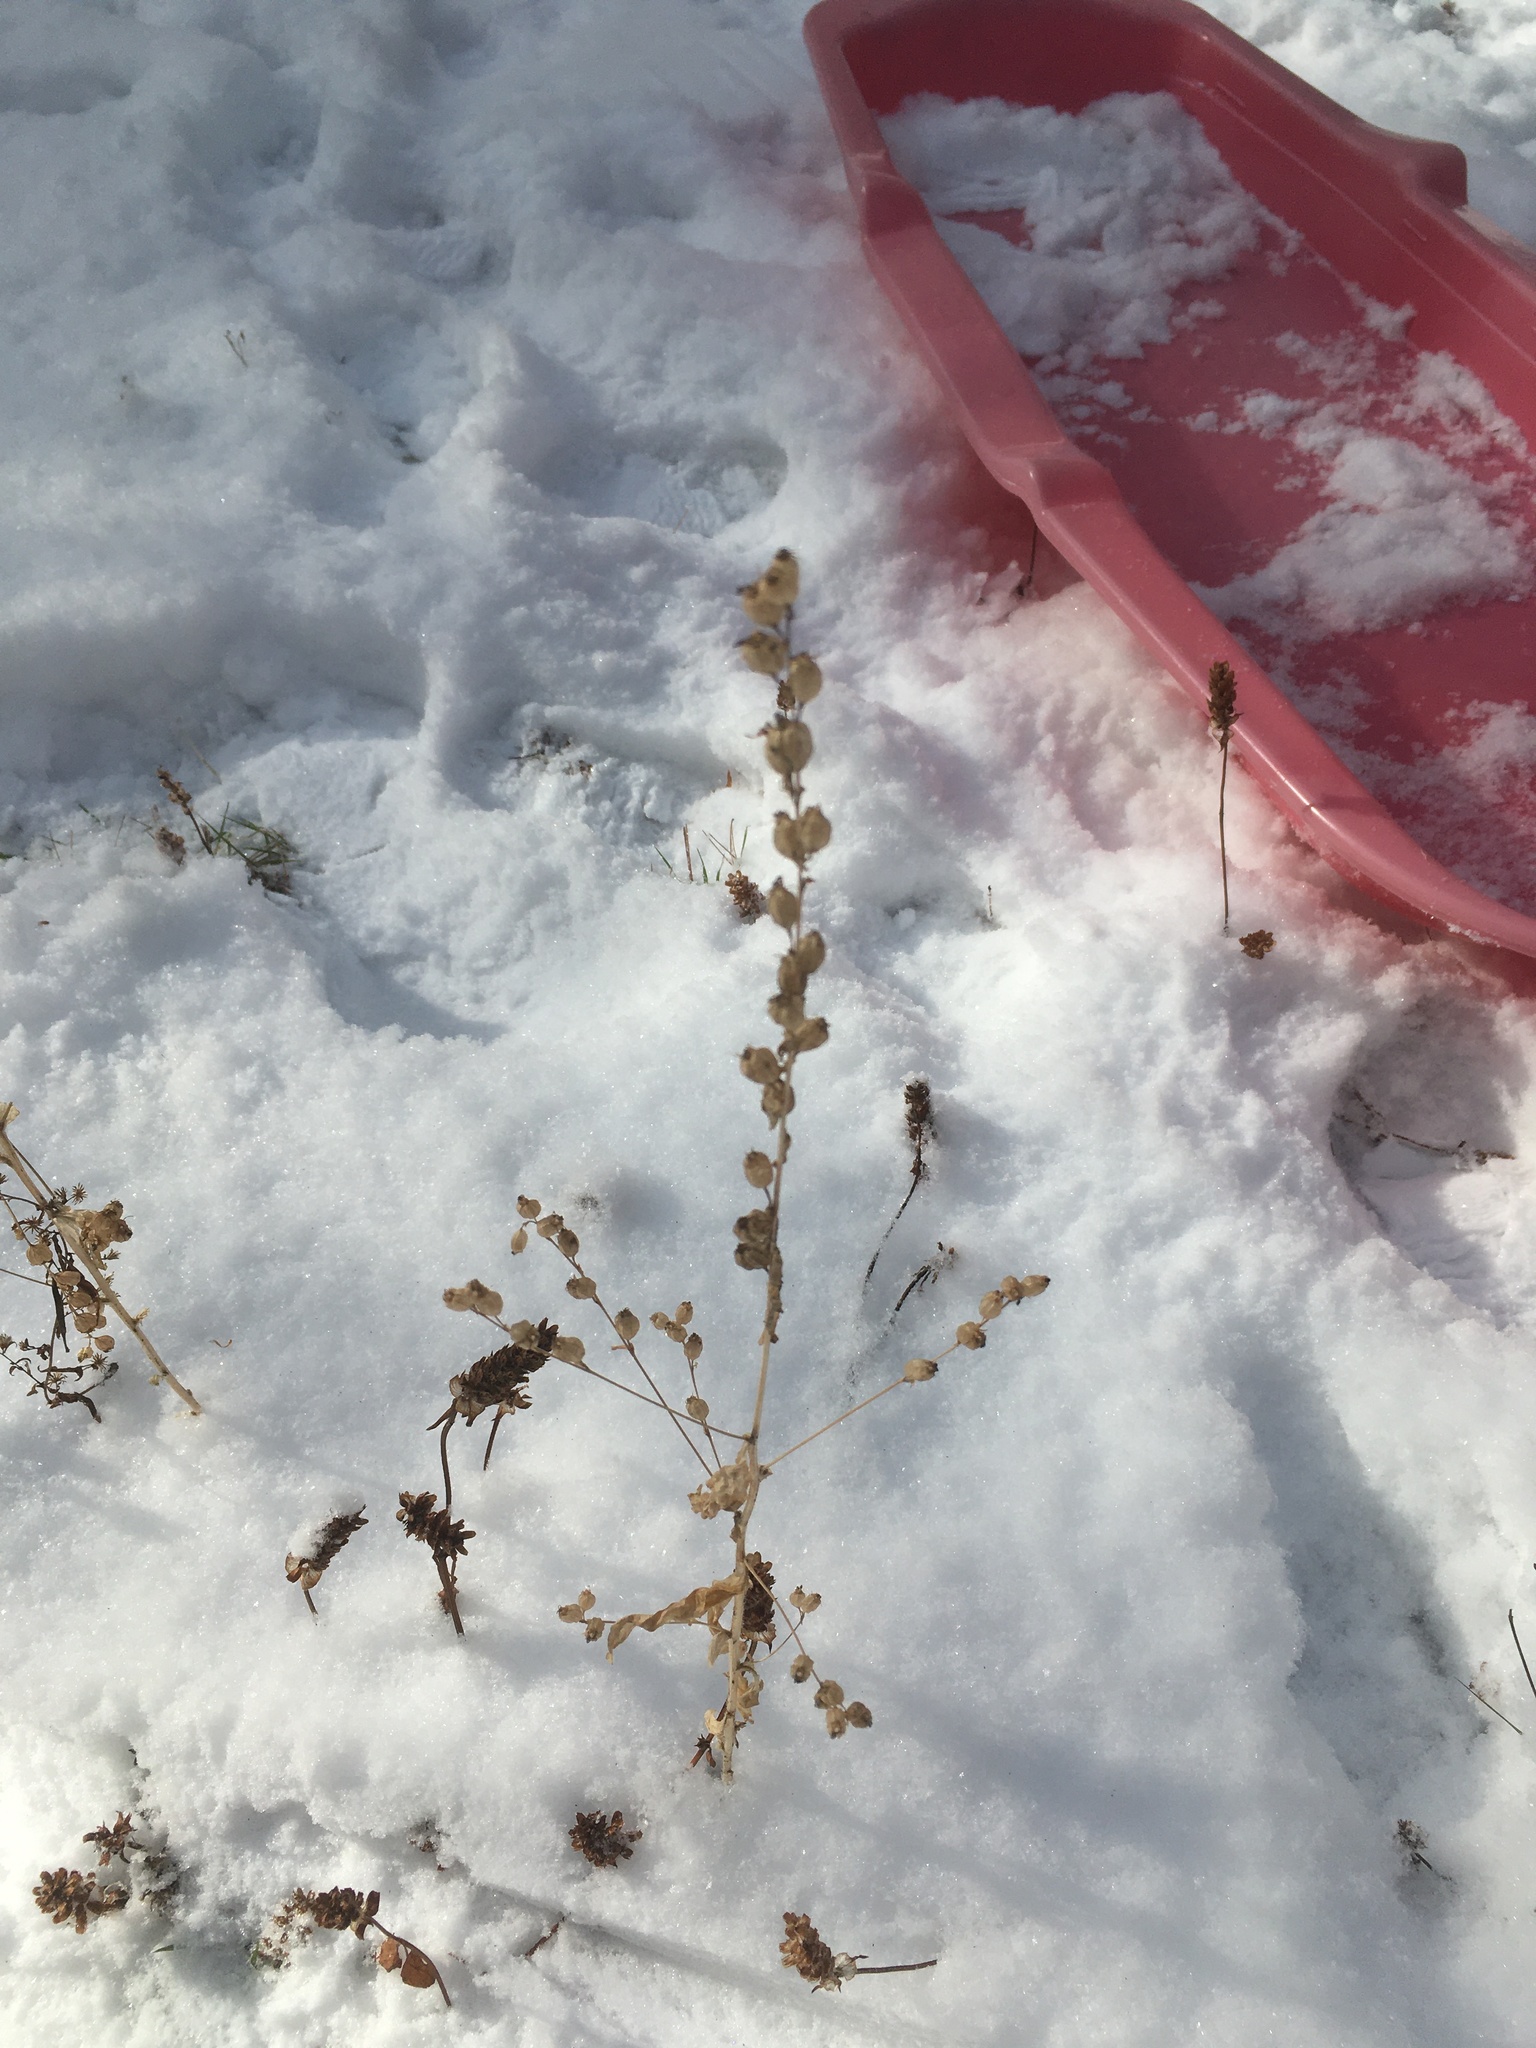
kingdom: Plantae
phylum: Tracheophyta
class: Magnoliopsida
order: Asterales
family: Campanulaceae
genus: Lobelia
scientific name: Lobelia inflata
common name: Indian tobacco
